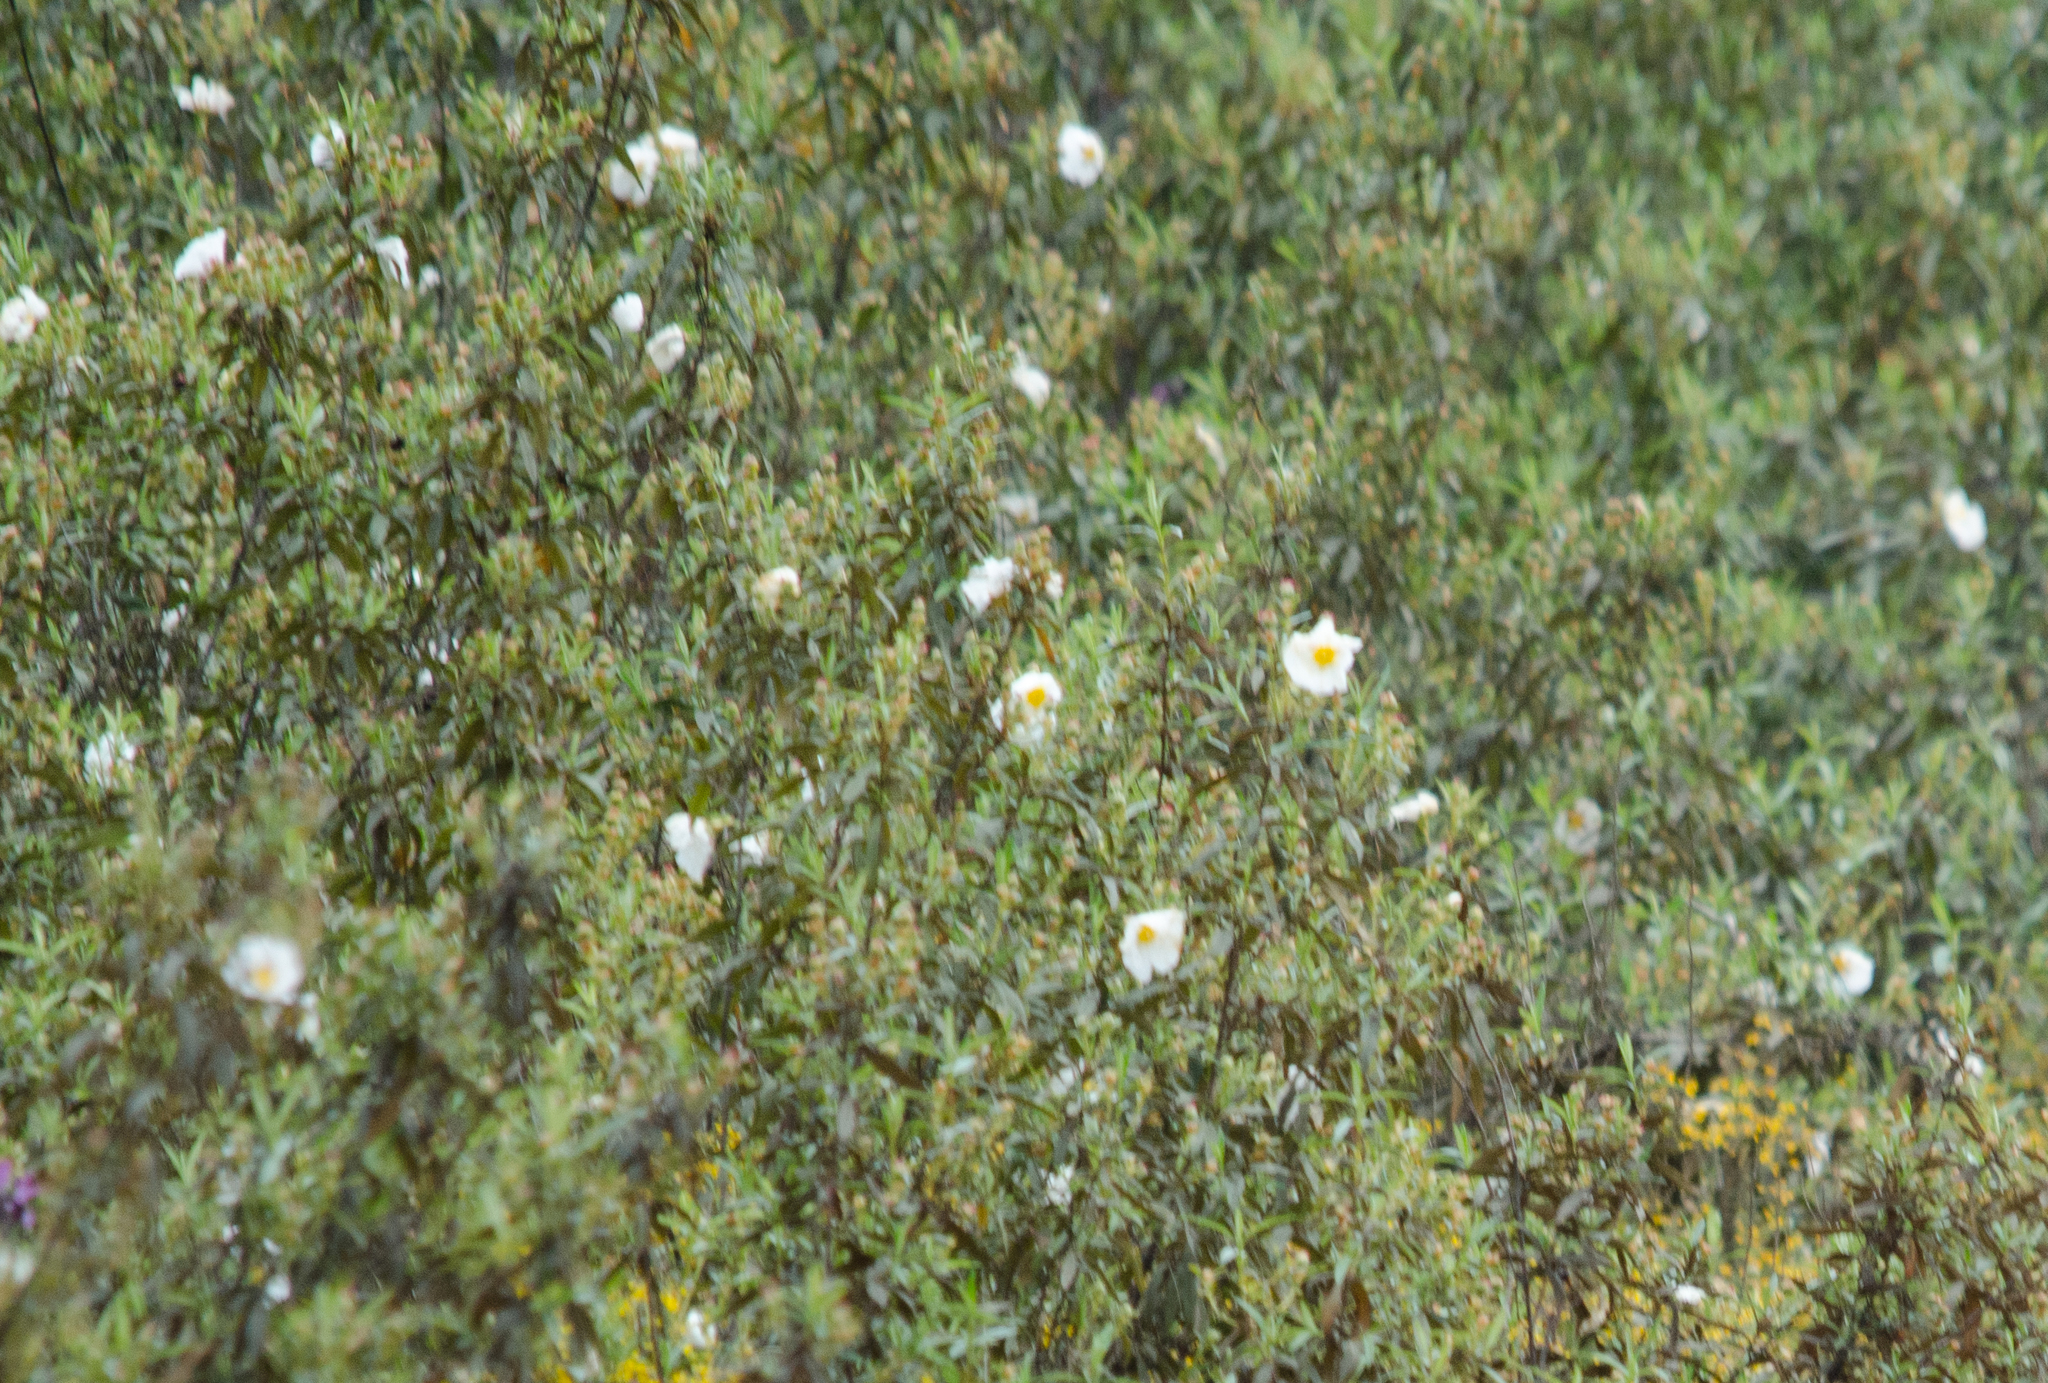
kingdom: Plantae
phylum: Tracheophyta
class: Magnoliopsida
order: Malvales
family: Cistaceae
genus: Cistus
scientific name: Cistus ladanifer
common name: Common gum cistus
